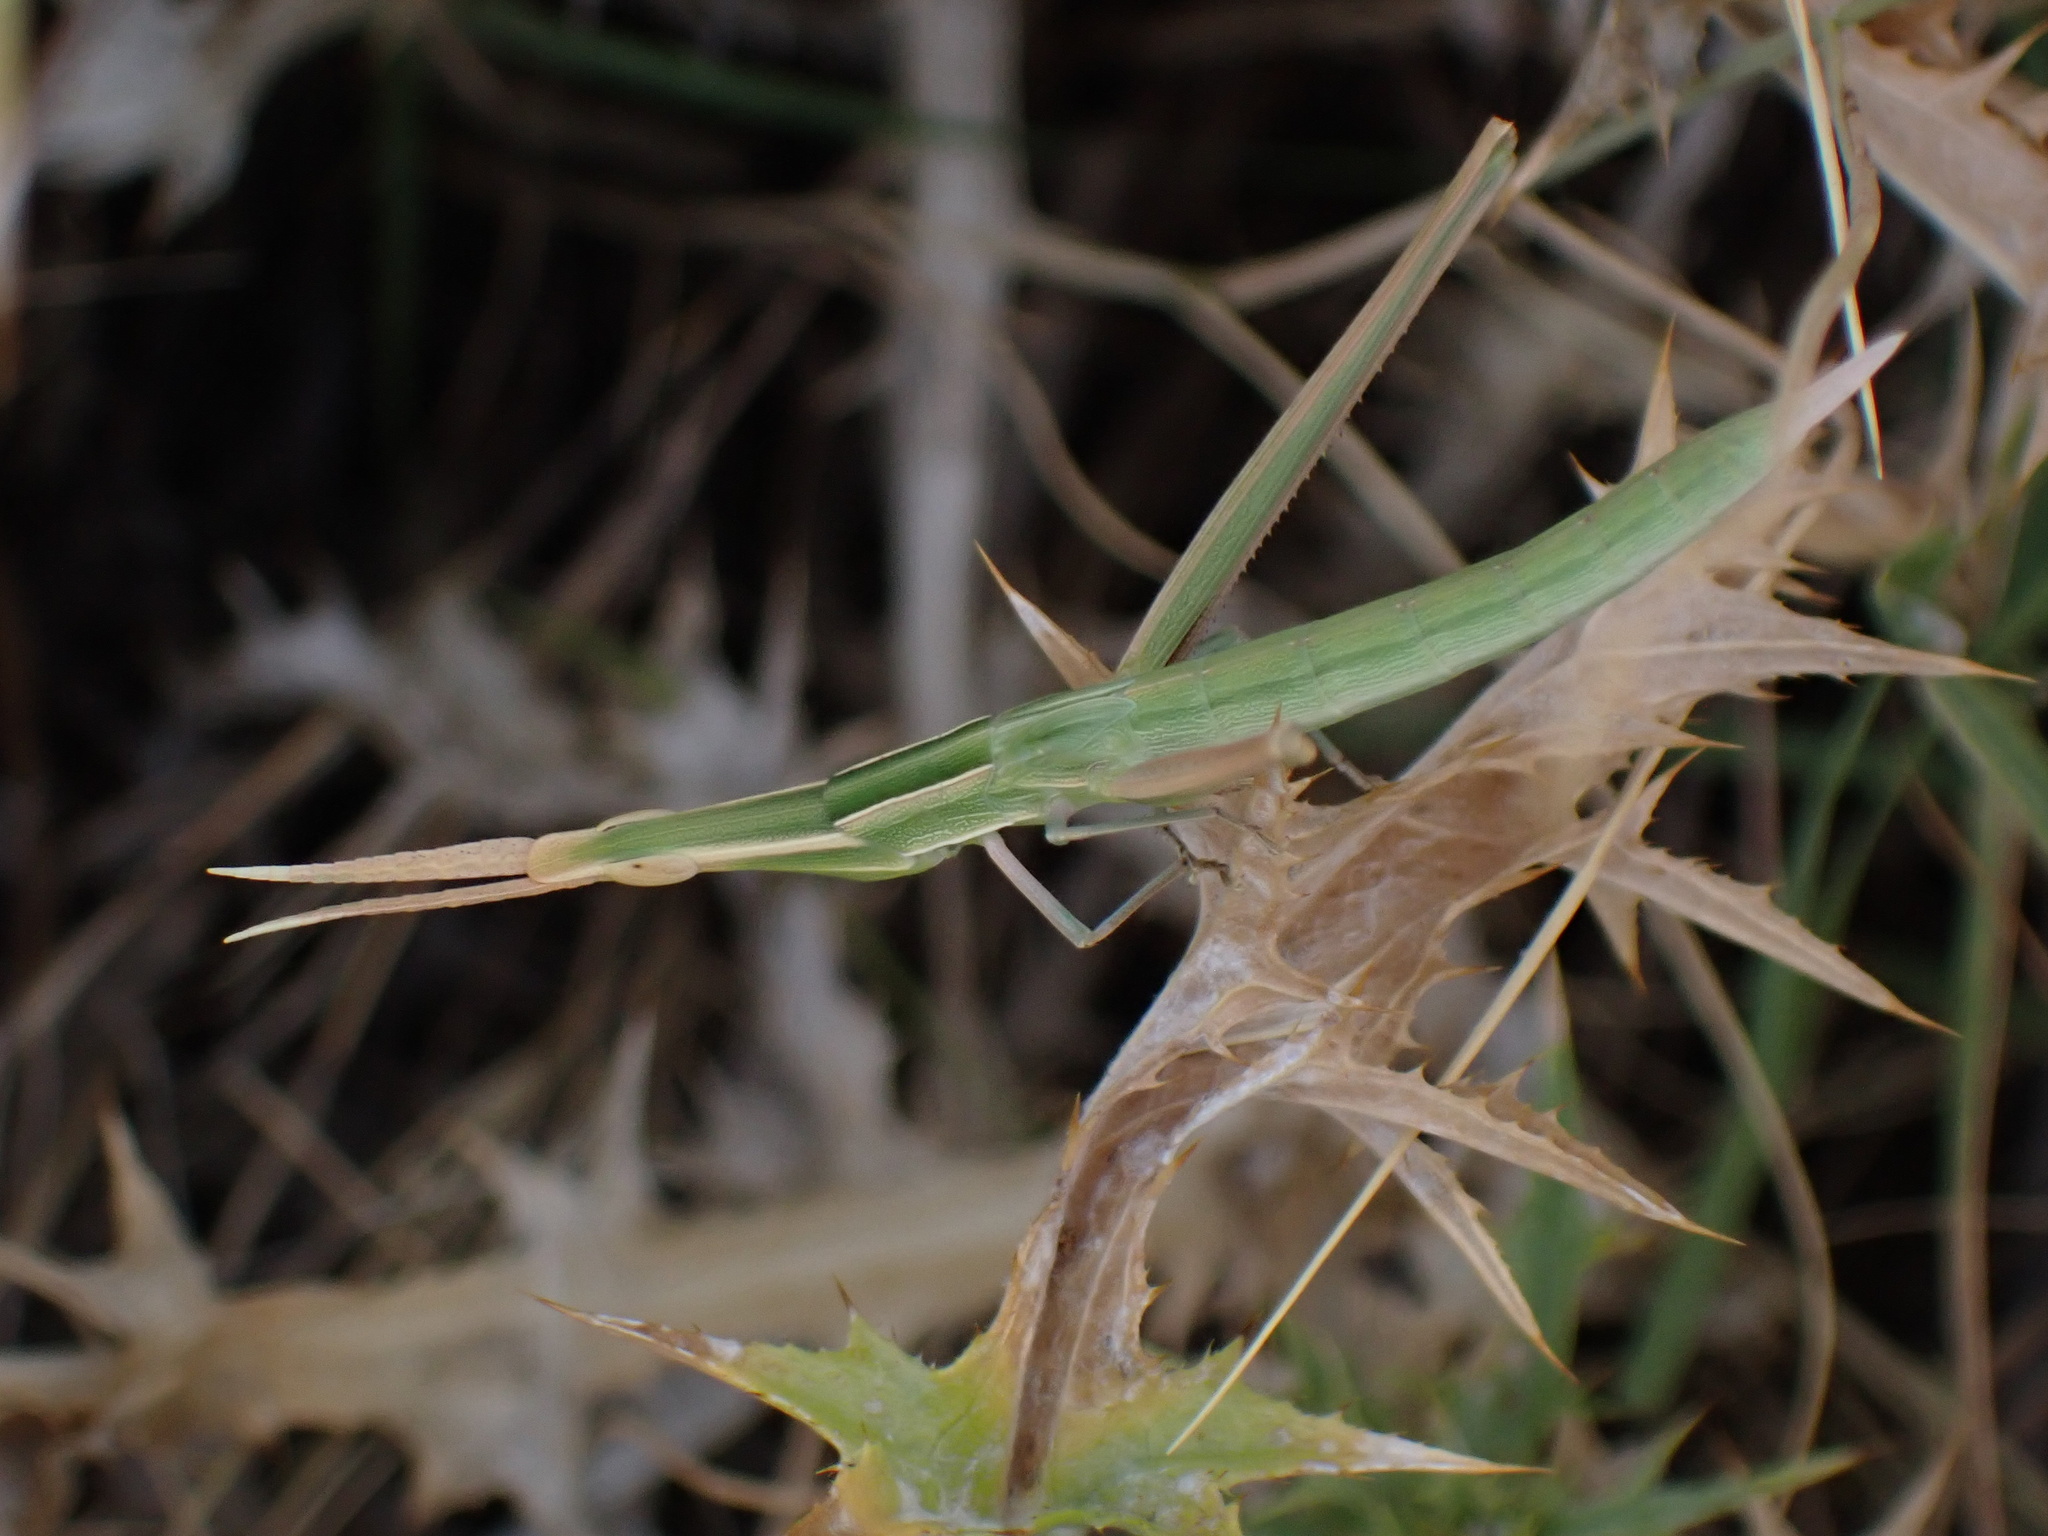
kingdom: Animalia
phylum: Arthropoda
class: Insecta
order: Orthoptera
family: Acrididae
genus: Acrida
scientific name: Acrida ungarica
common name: Common cone-headed grasshopper
